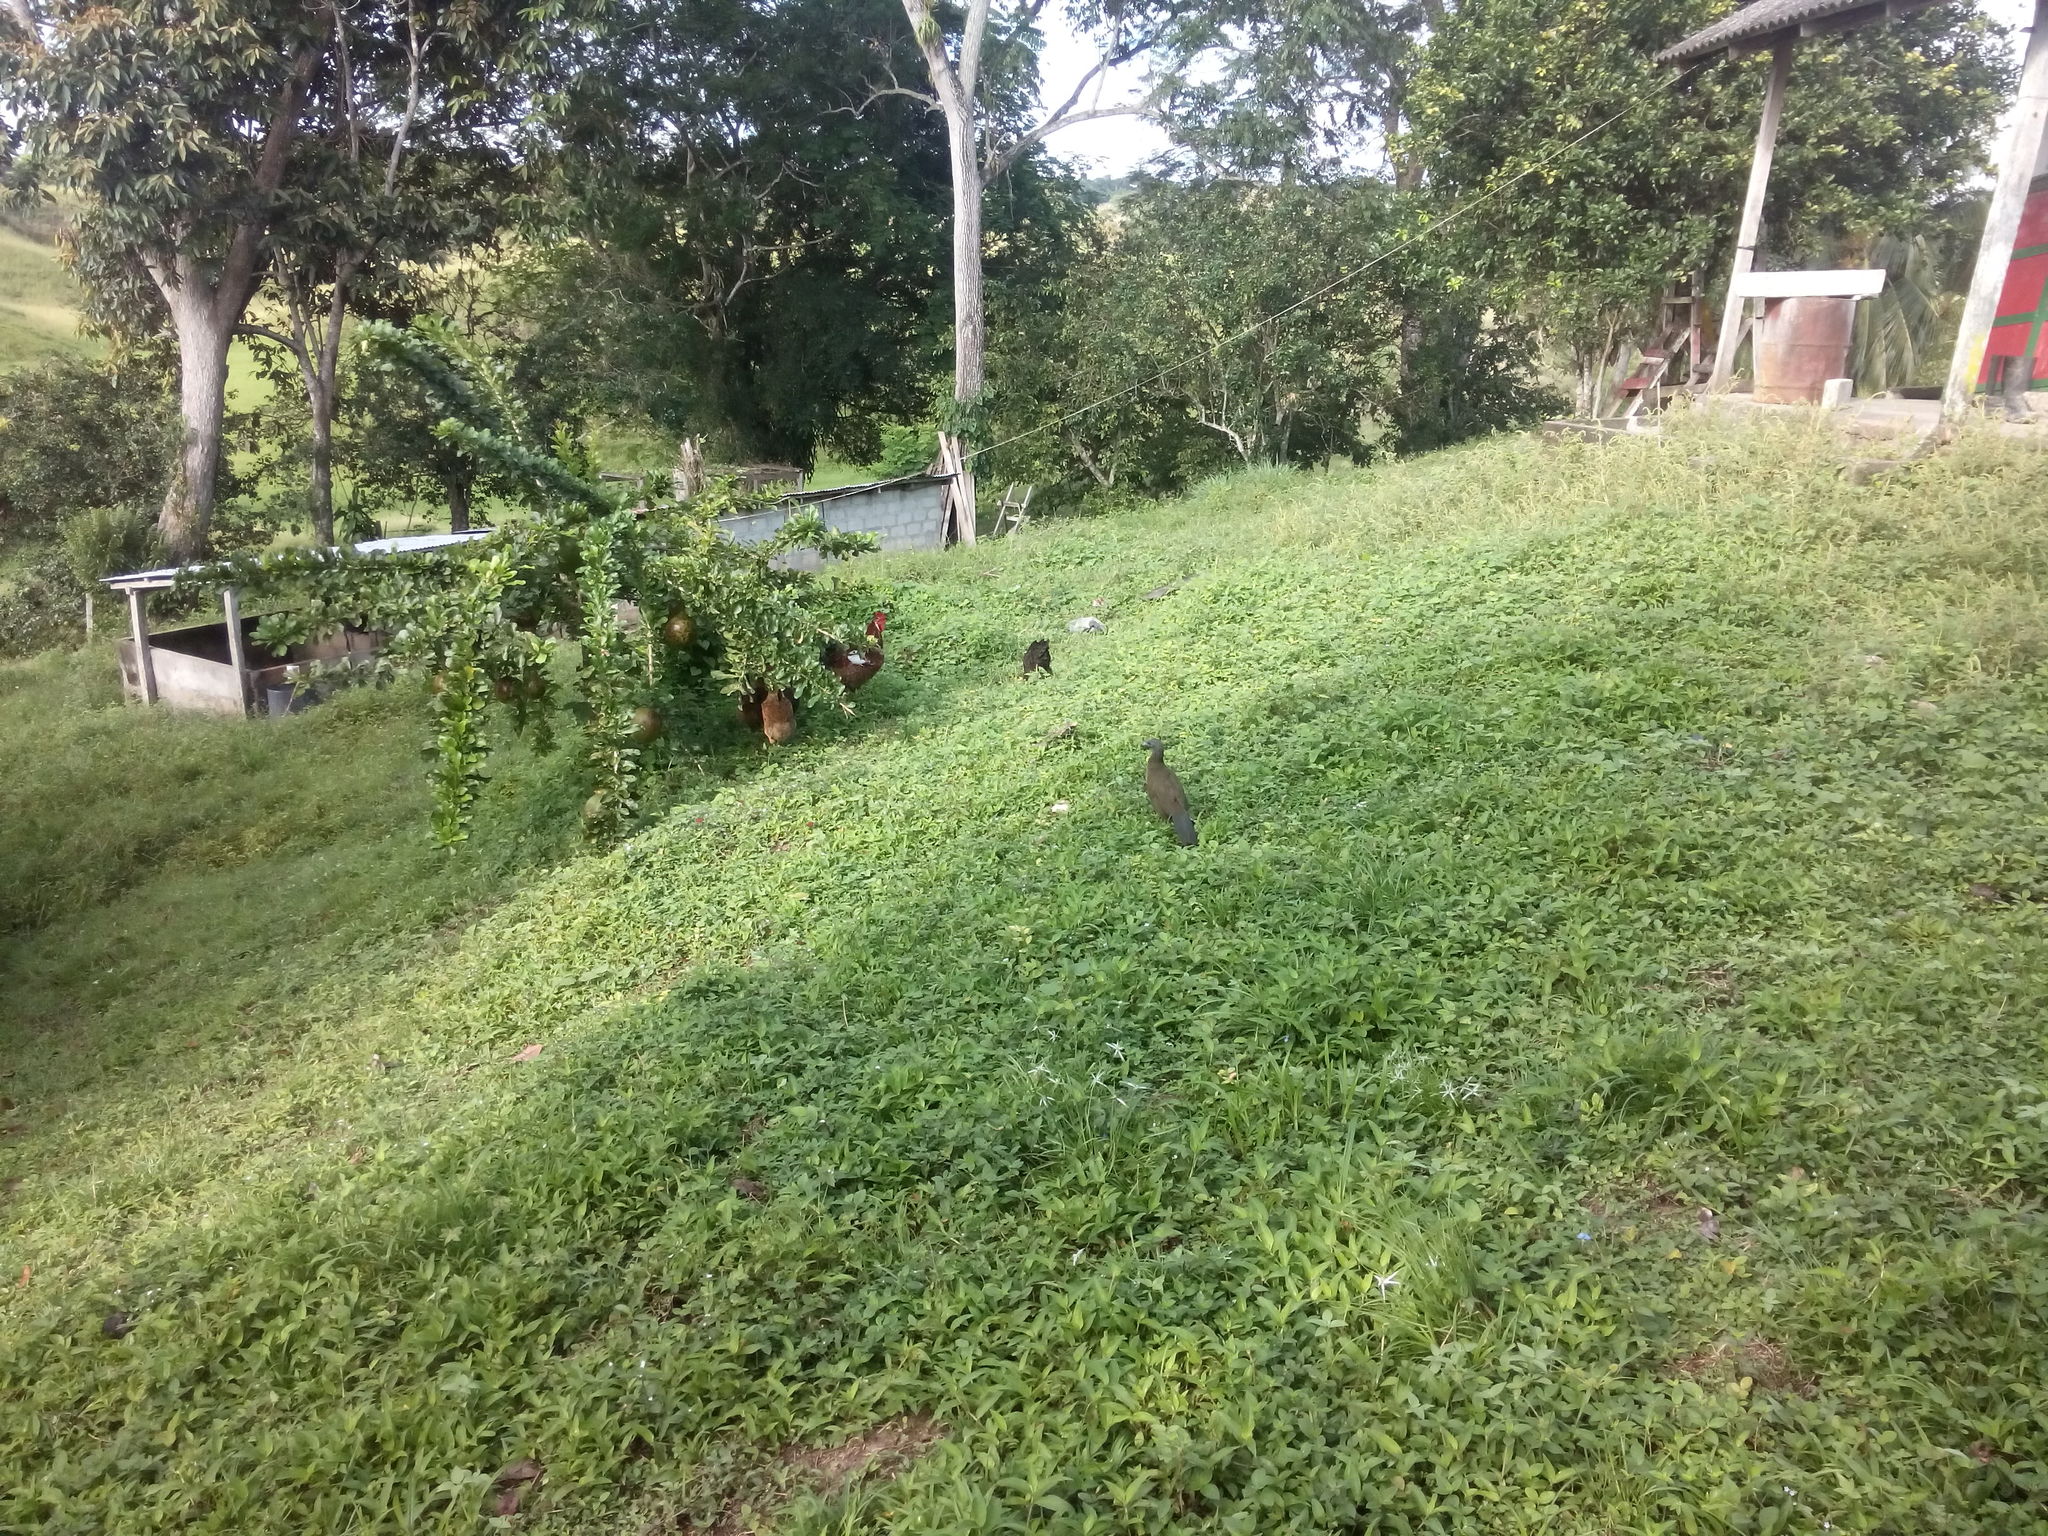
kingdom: Animalia
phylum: Chordata
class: Aves
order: Galliformes
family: Cracidae
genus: Ortalis
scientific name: Ortalis columbiana
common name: Colombian chachalaca
